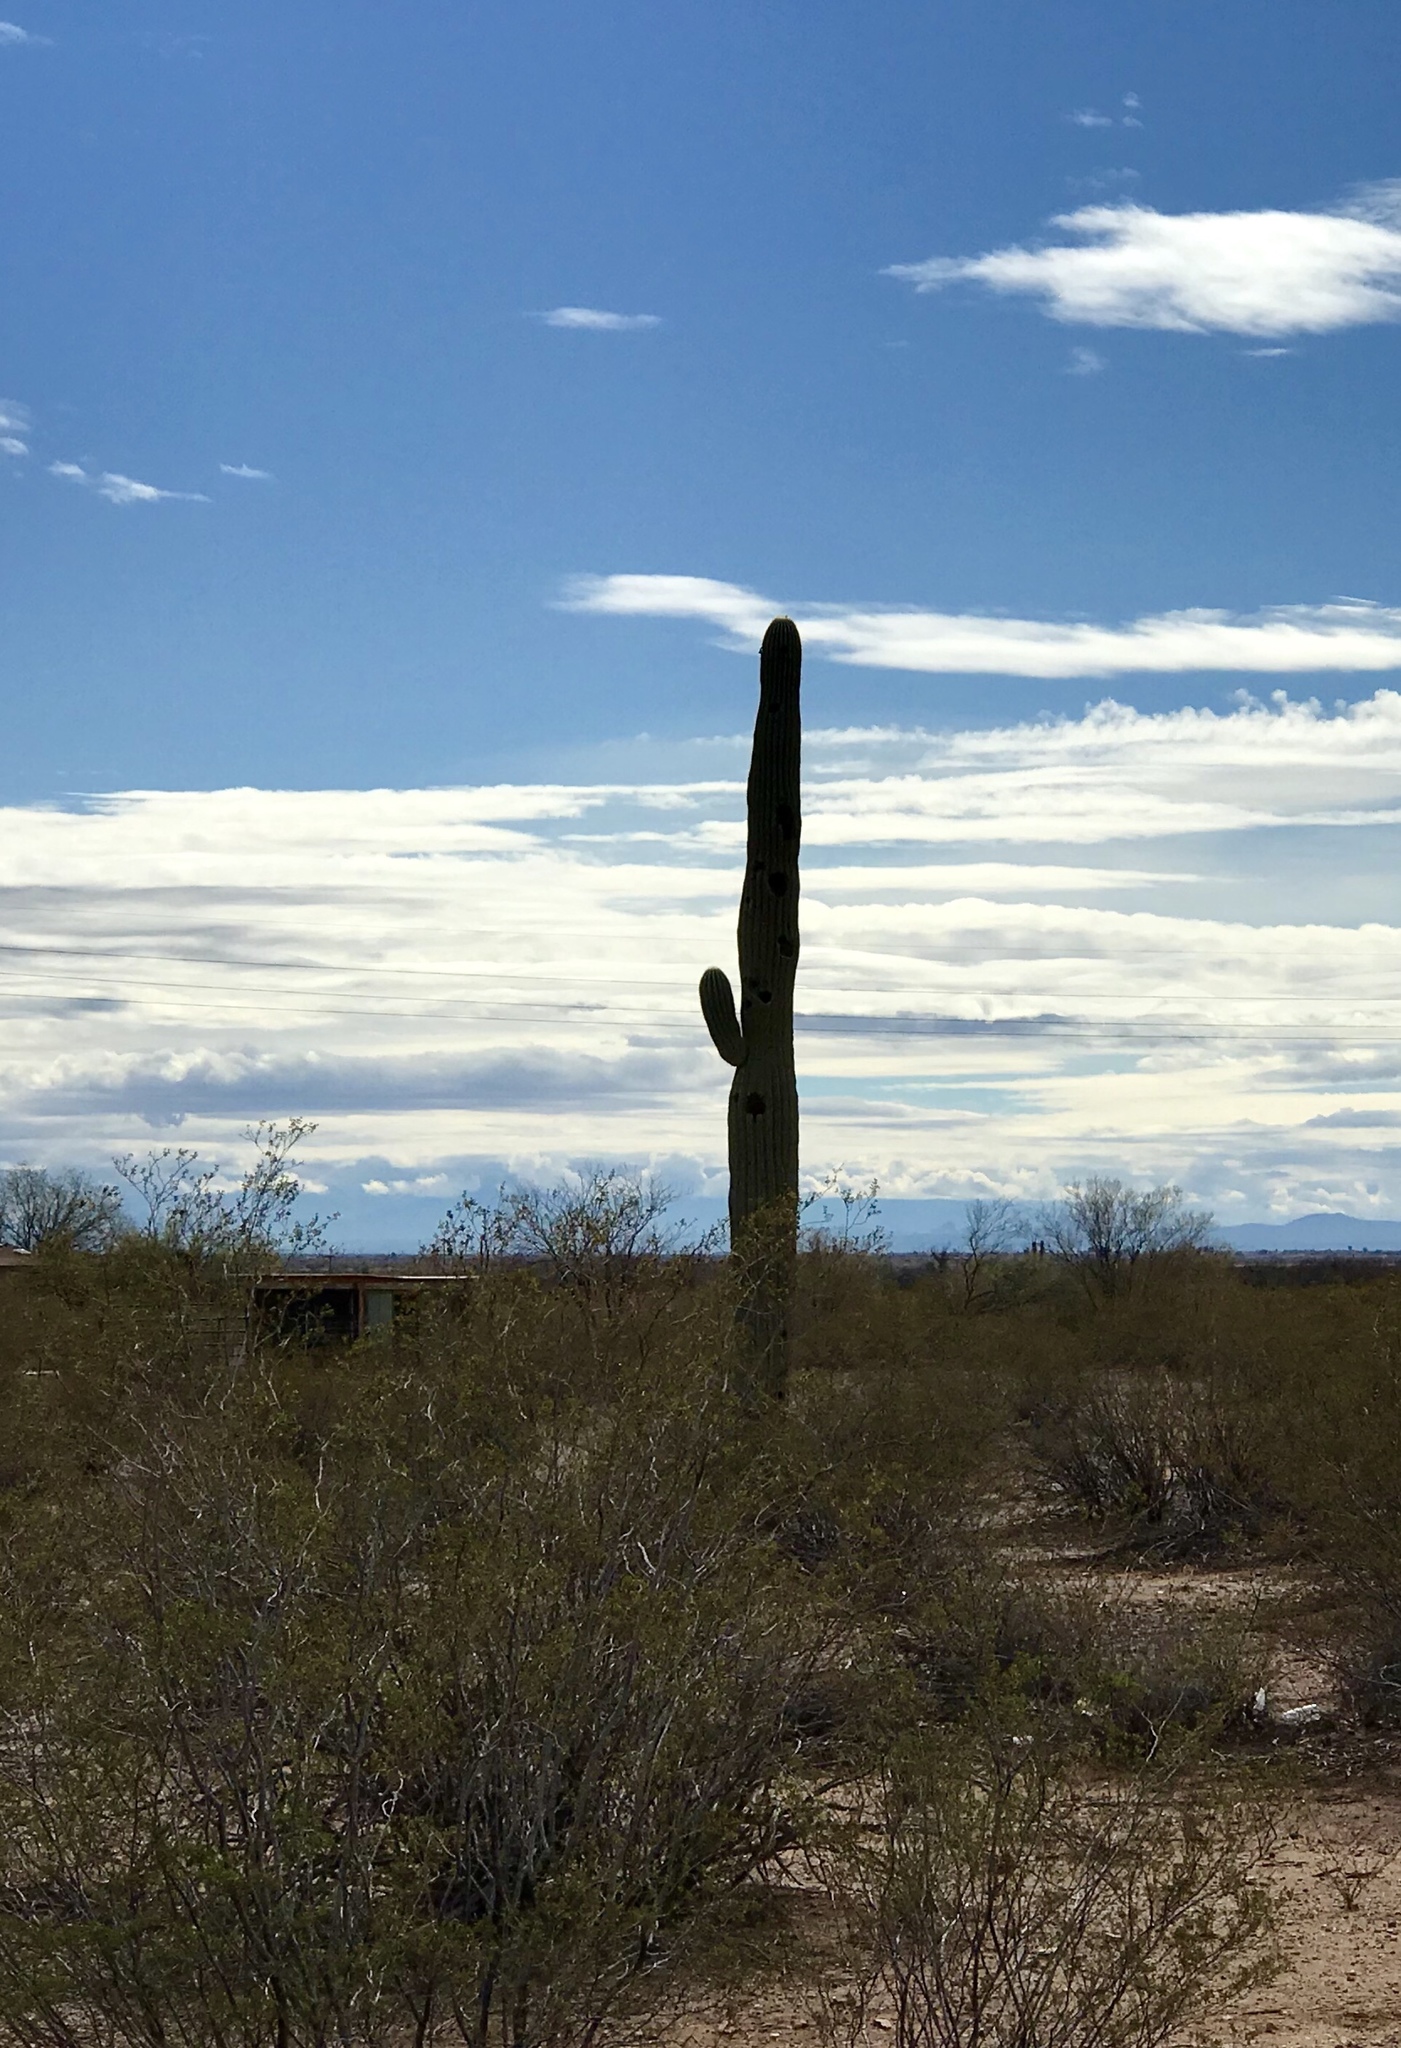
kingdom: Plantae
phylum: Tracheophyta
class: Magnoliopsida
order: Zygophyllales
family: Zygophyllaceae
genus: Larrea
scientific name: Larrea tridentata
